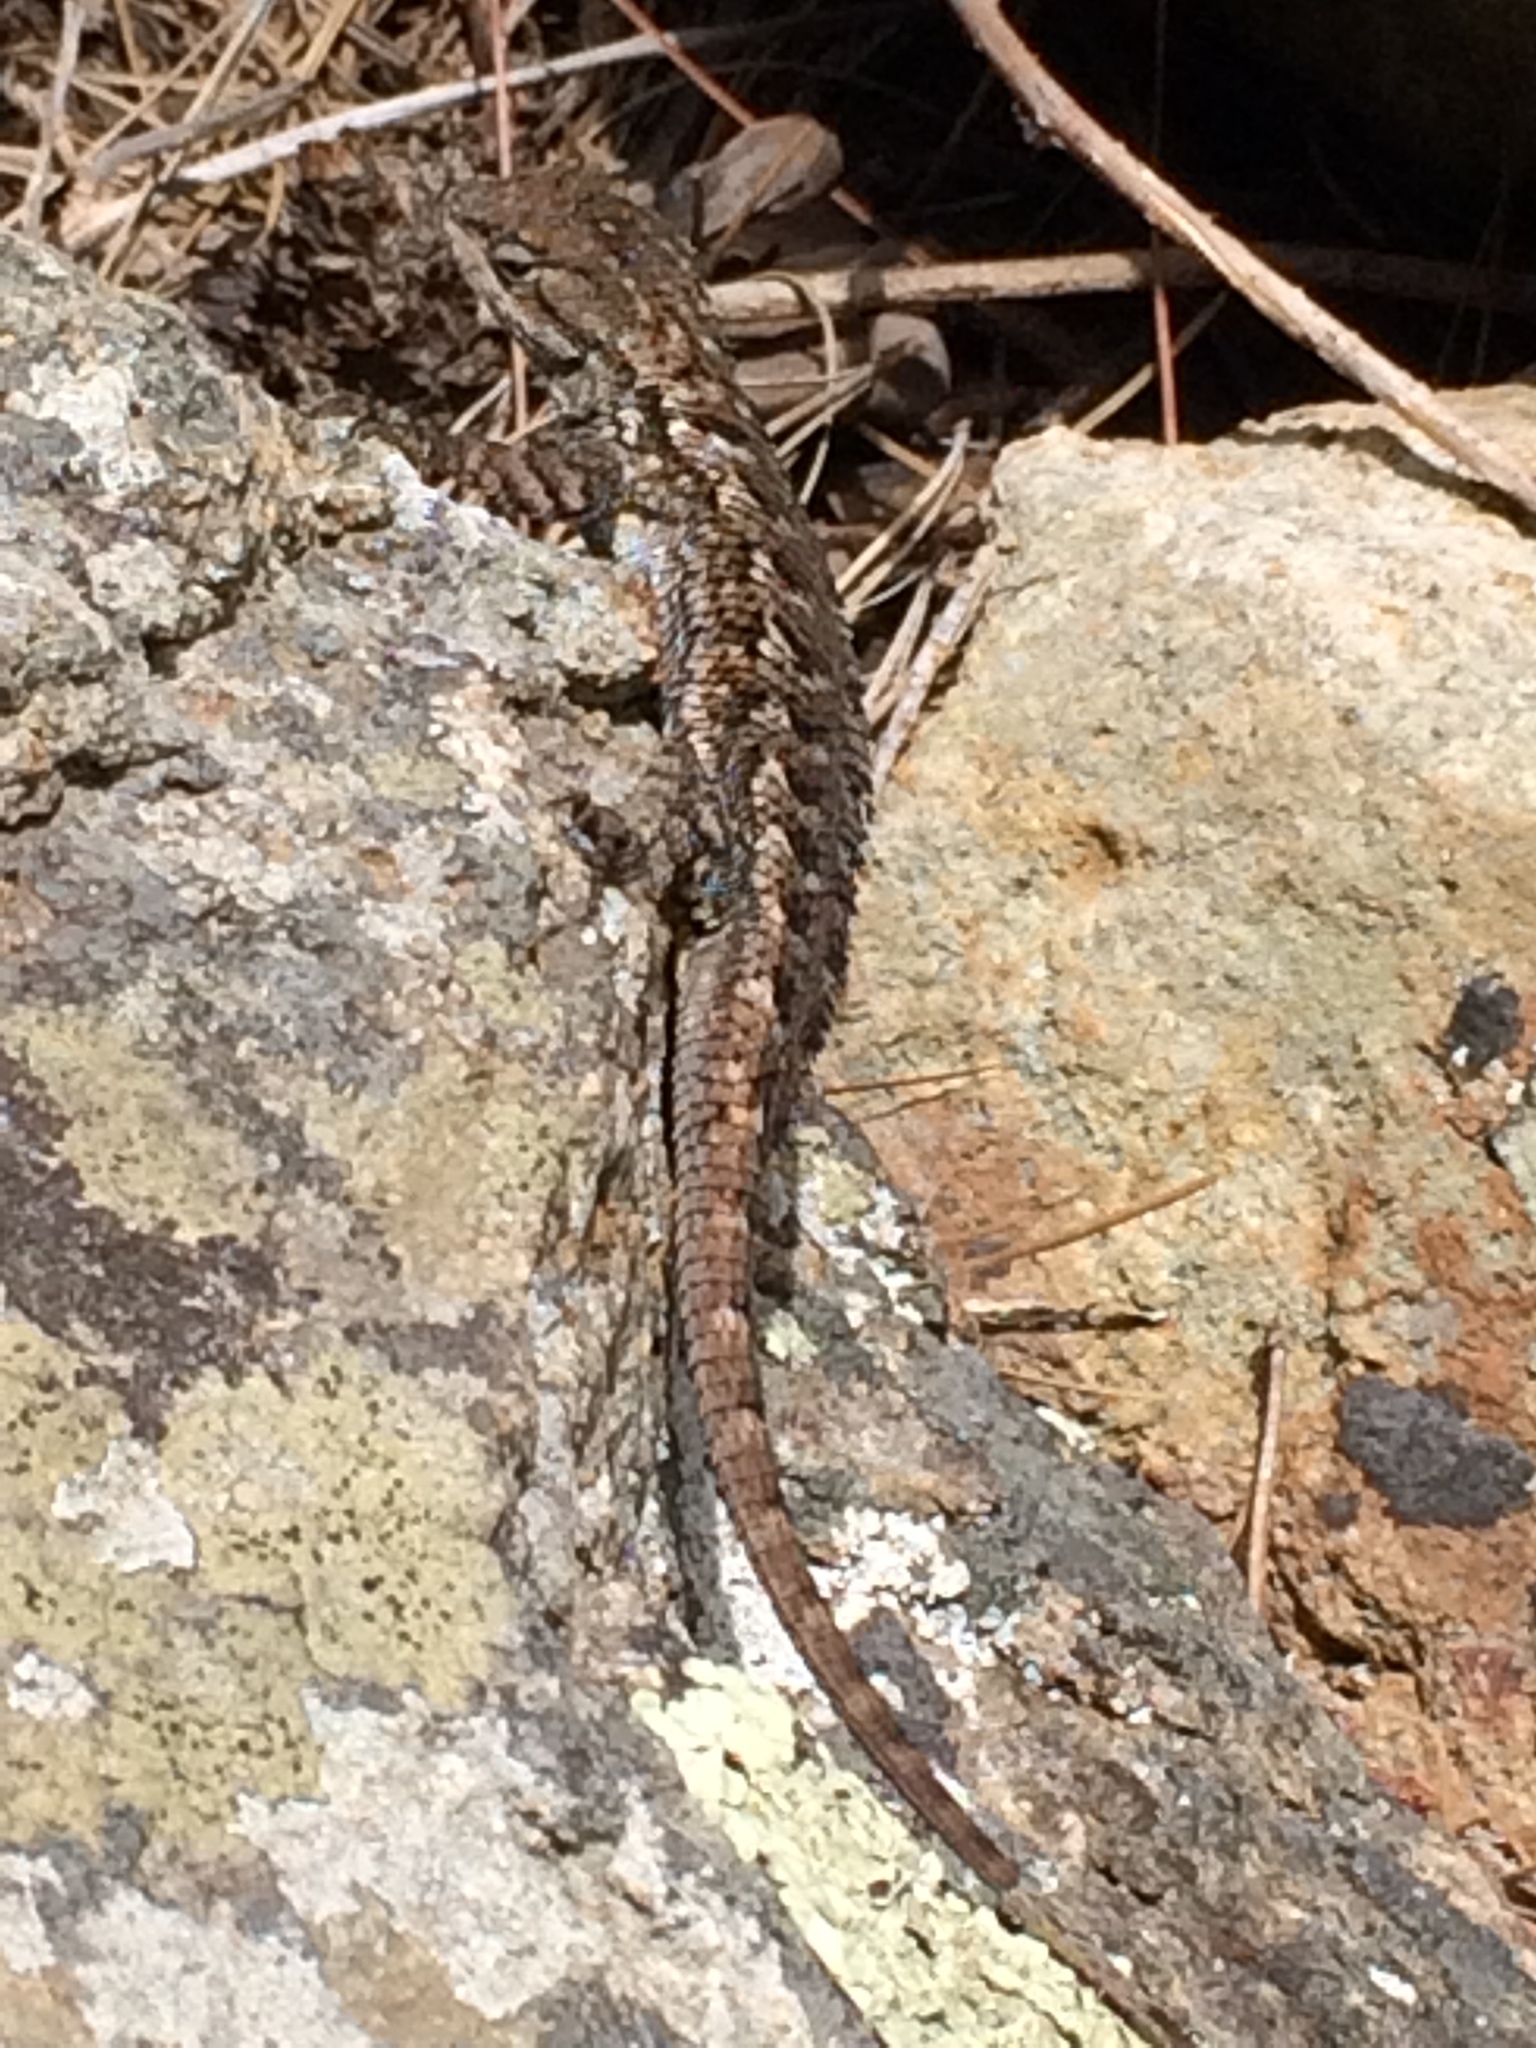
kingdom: Animalia
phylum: Chordata
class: Squamata
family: Phrynosomatidae
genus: Sceloporus
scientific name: Sceloporus occidentalis
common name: Western fence lizard
